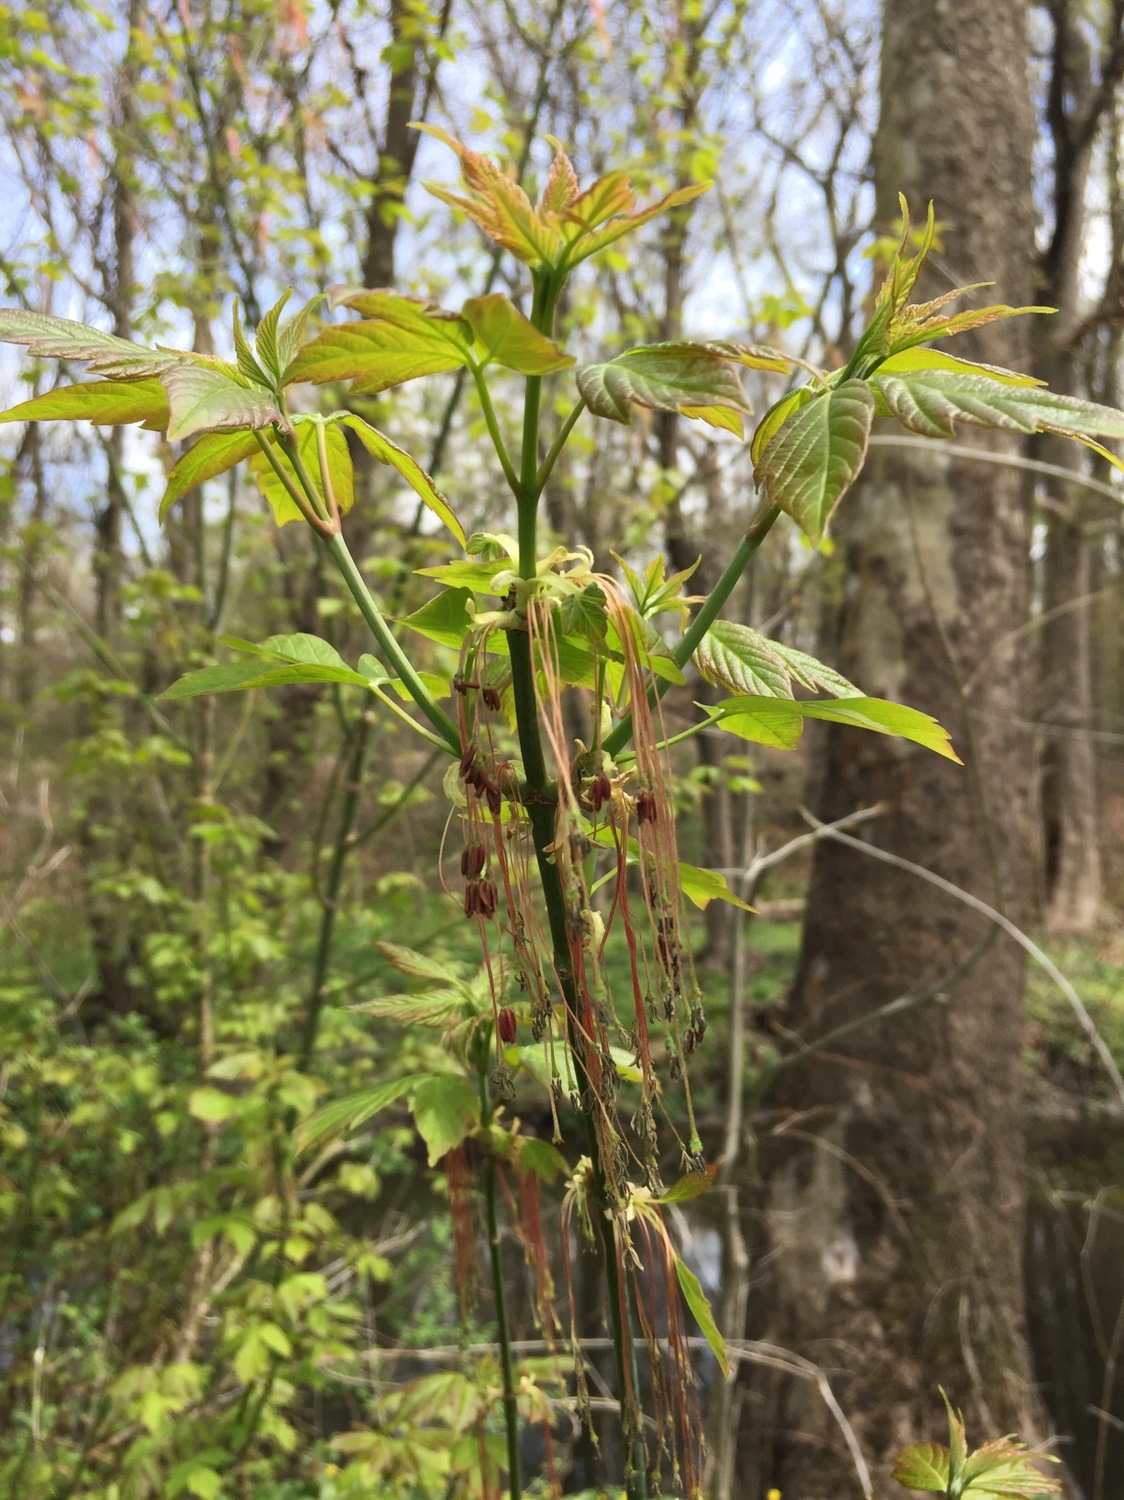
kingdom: Plantae
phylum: Tracheophyta
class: Magnoliopsida
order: Sapindales
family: Sapindaceae
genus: Acer
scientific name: Acer negundo
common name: Ashleaf maple
